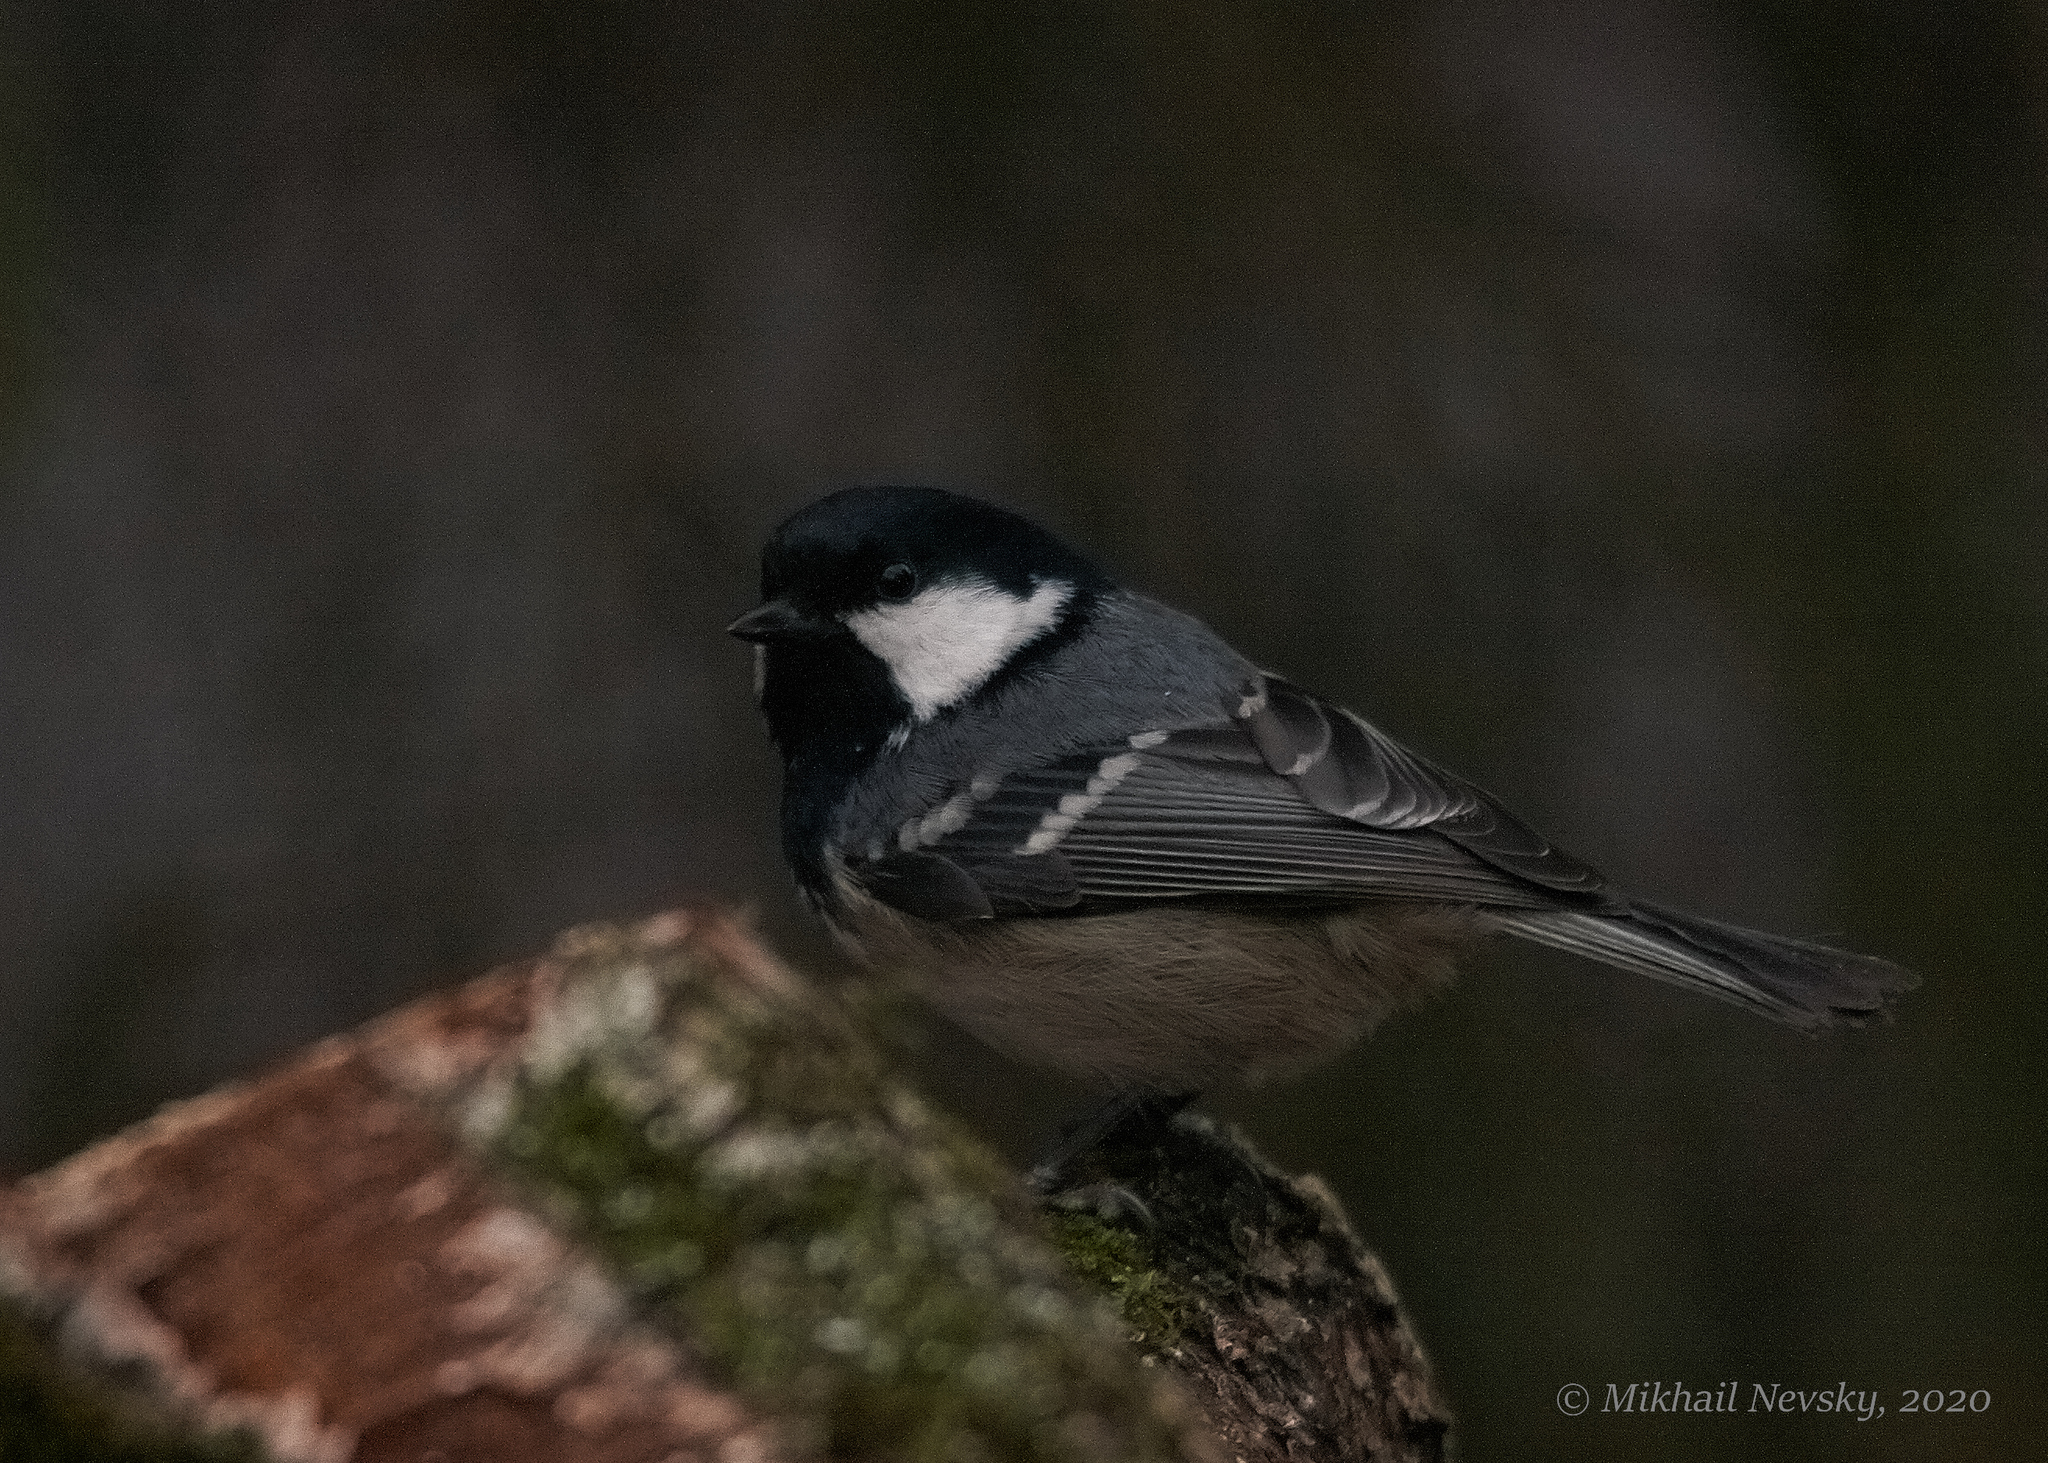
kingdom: Animalia
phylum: Chordata
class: Aves
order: Passeriformes
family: Paridae
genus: Periparus
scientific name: Periparus ater
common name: Coal tit
